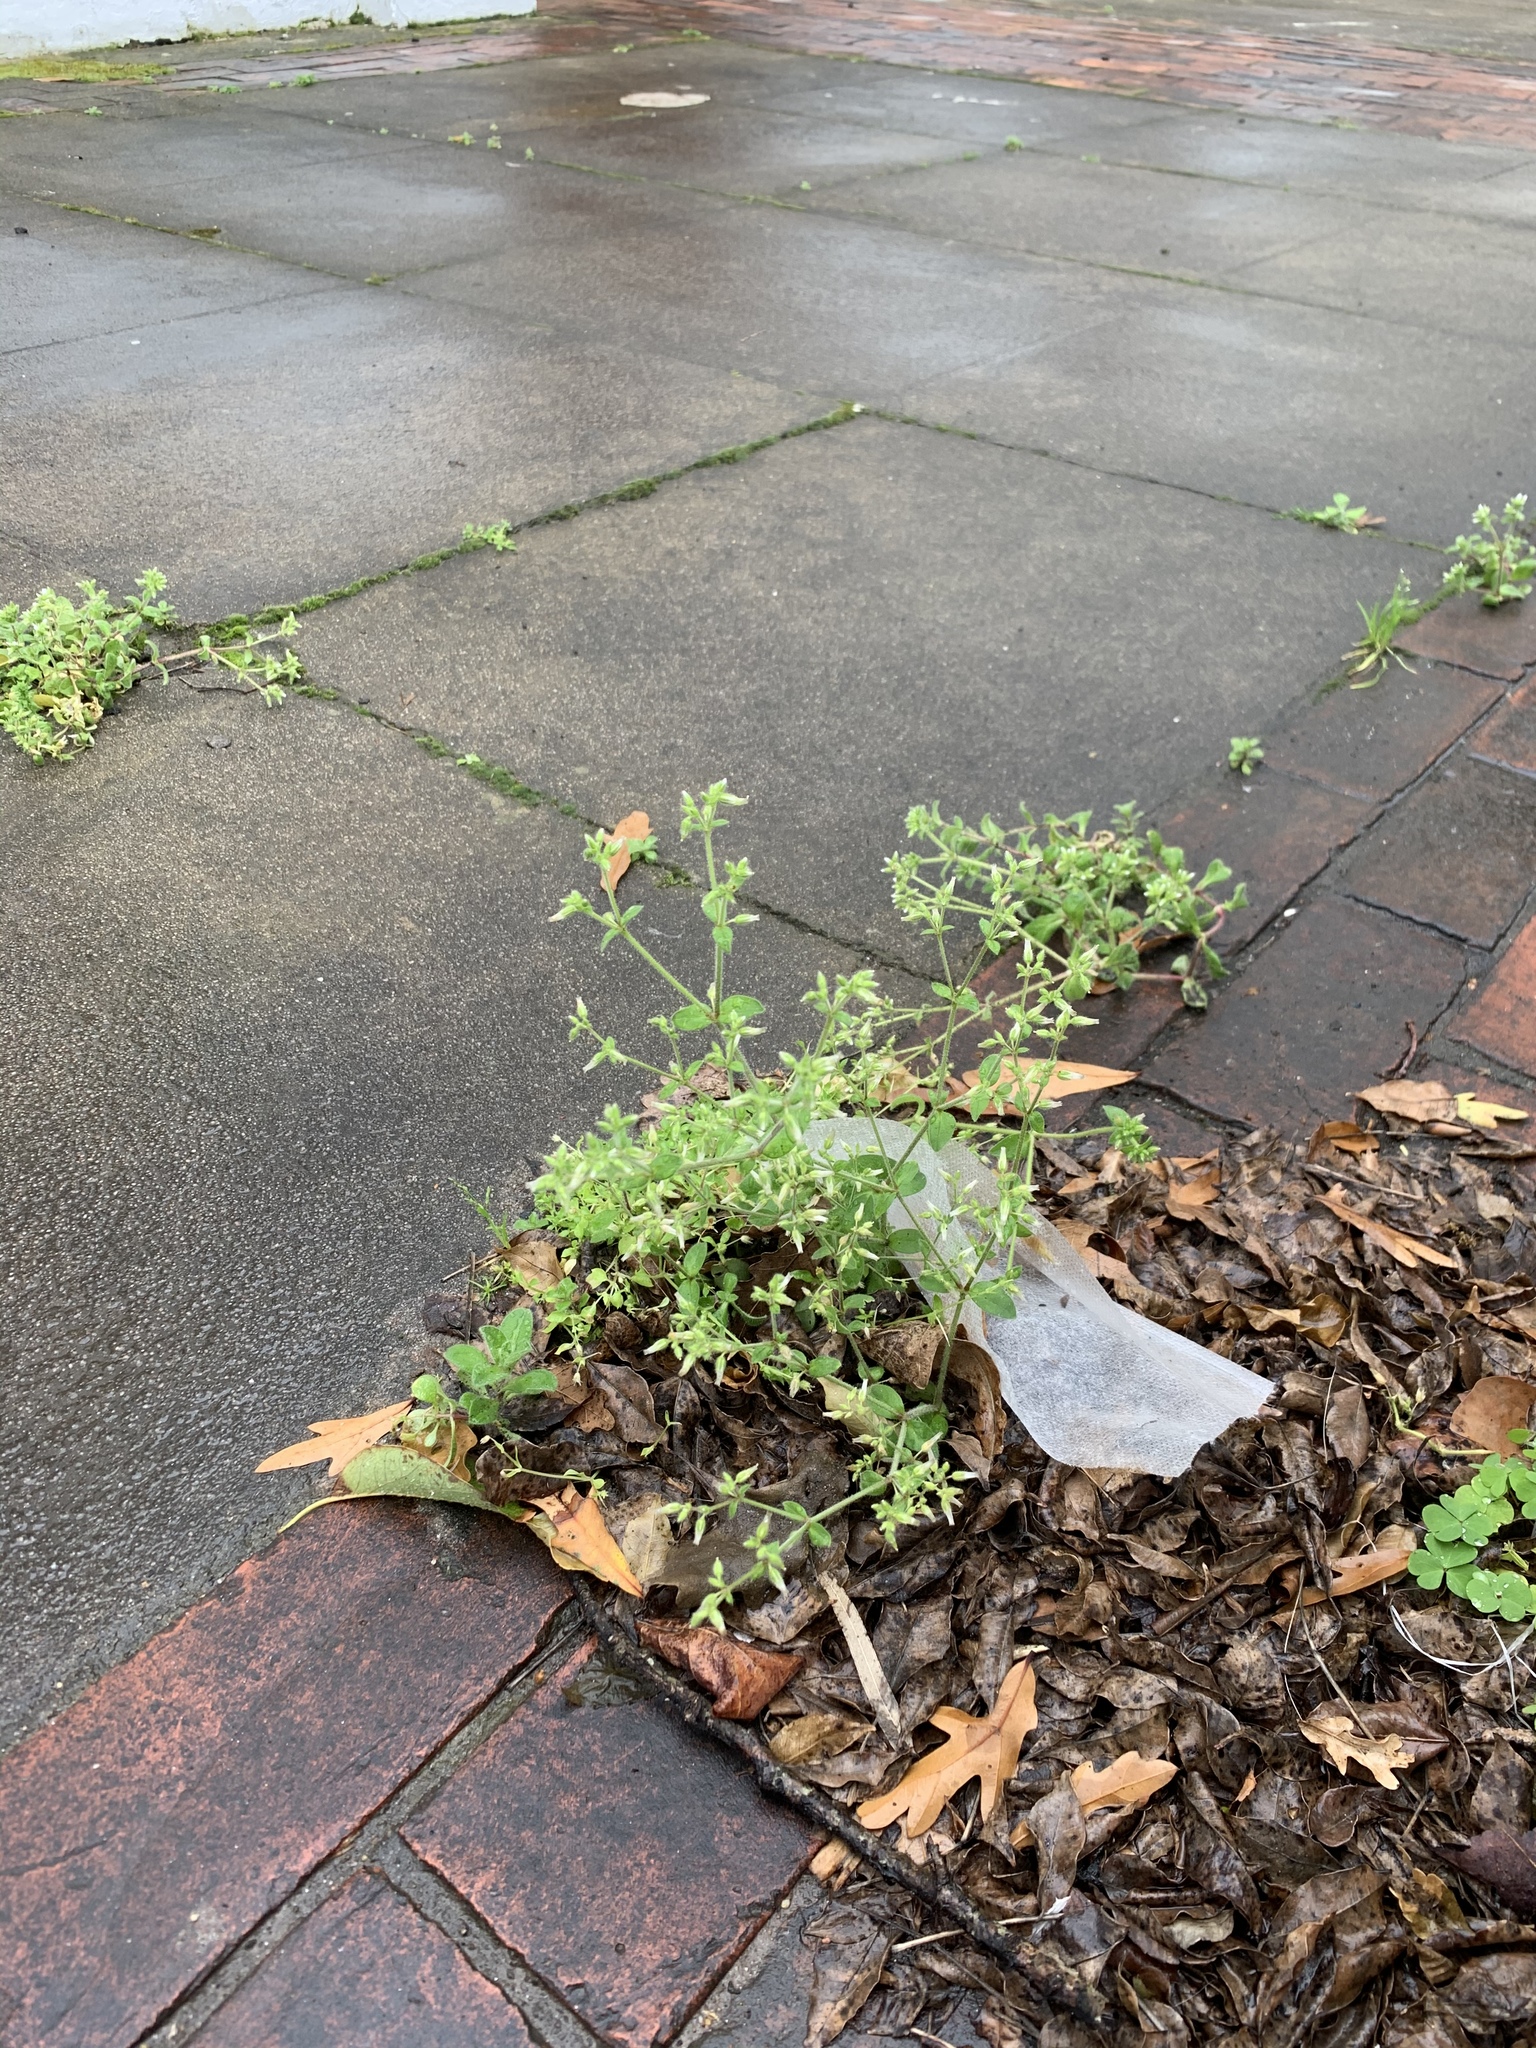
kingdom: Plantae
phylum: Tracheophyta
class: Magnoliopsida
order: Caryophyllales
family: Caryophyllaceae
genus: Cerastium
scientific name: Cerastium glomeratum
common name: Sticky chickweed
